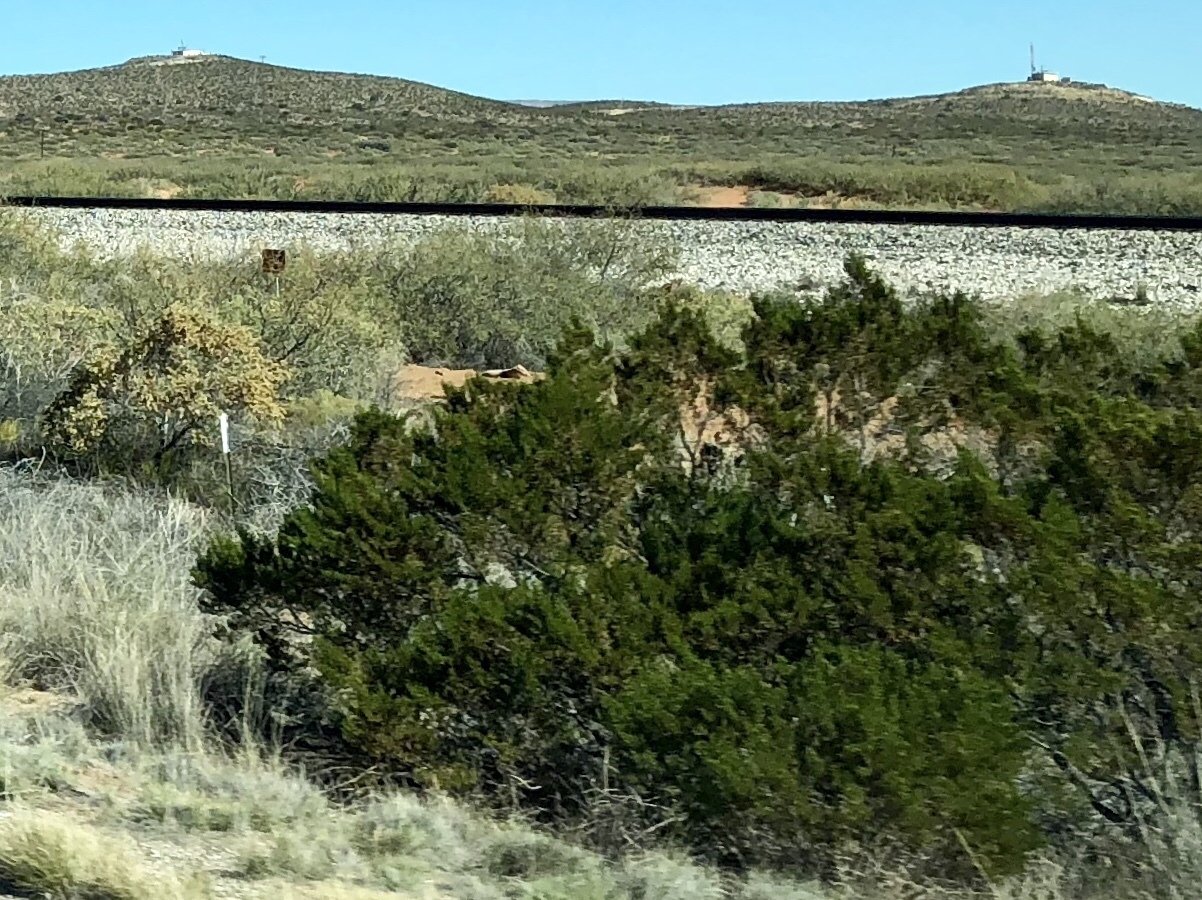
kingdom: Plantae
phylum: Tracheophyta
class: Magnoliopsida
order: Zygophyllales
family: Zygophyllaceae
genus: Larrea
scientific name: Larrea tridentata
